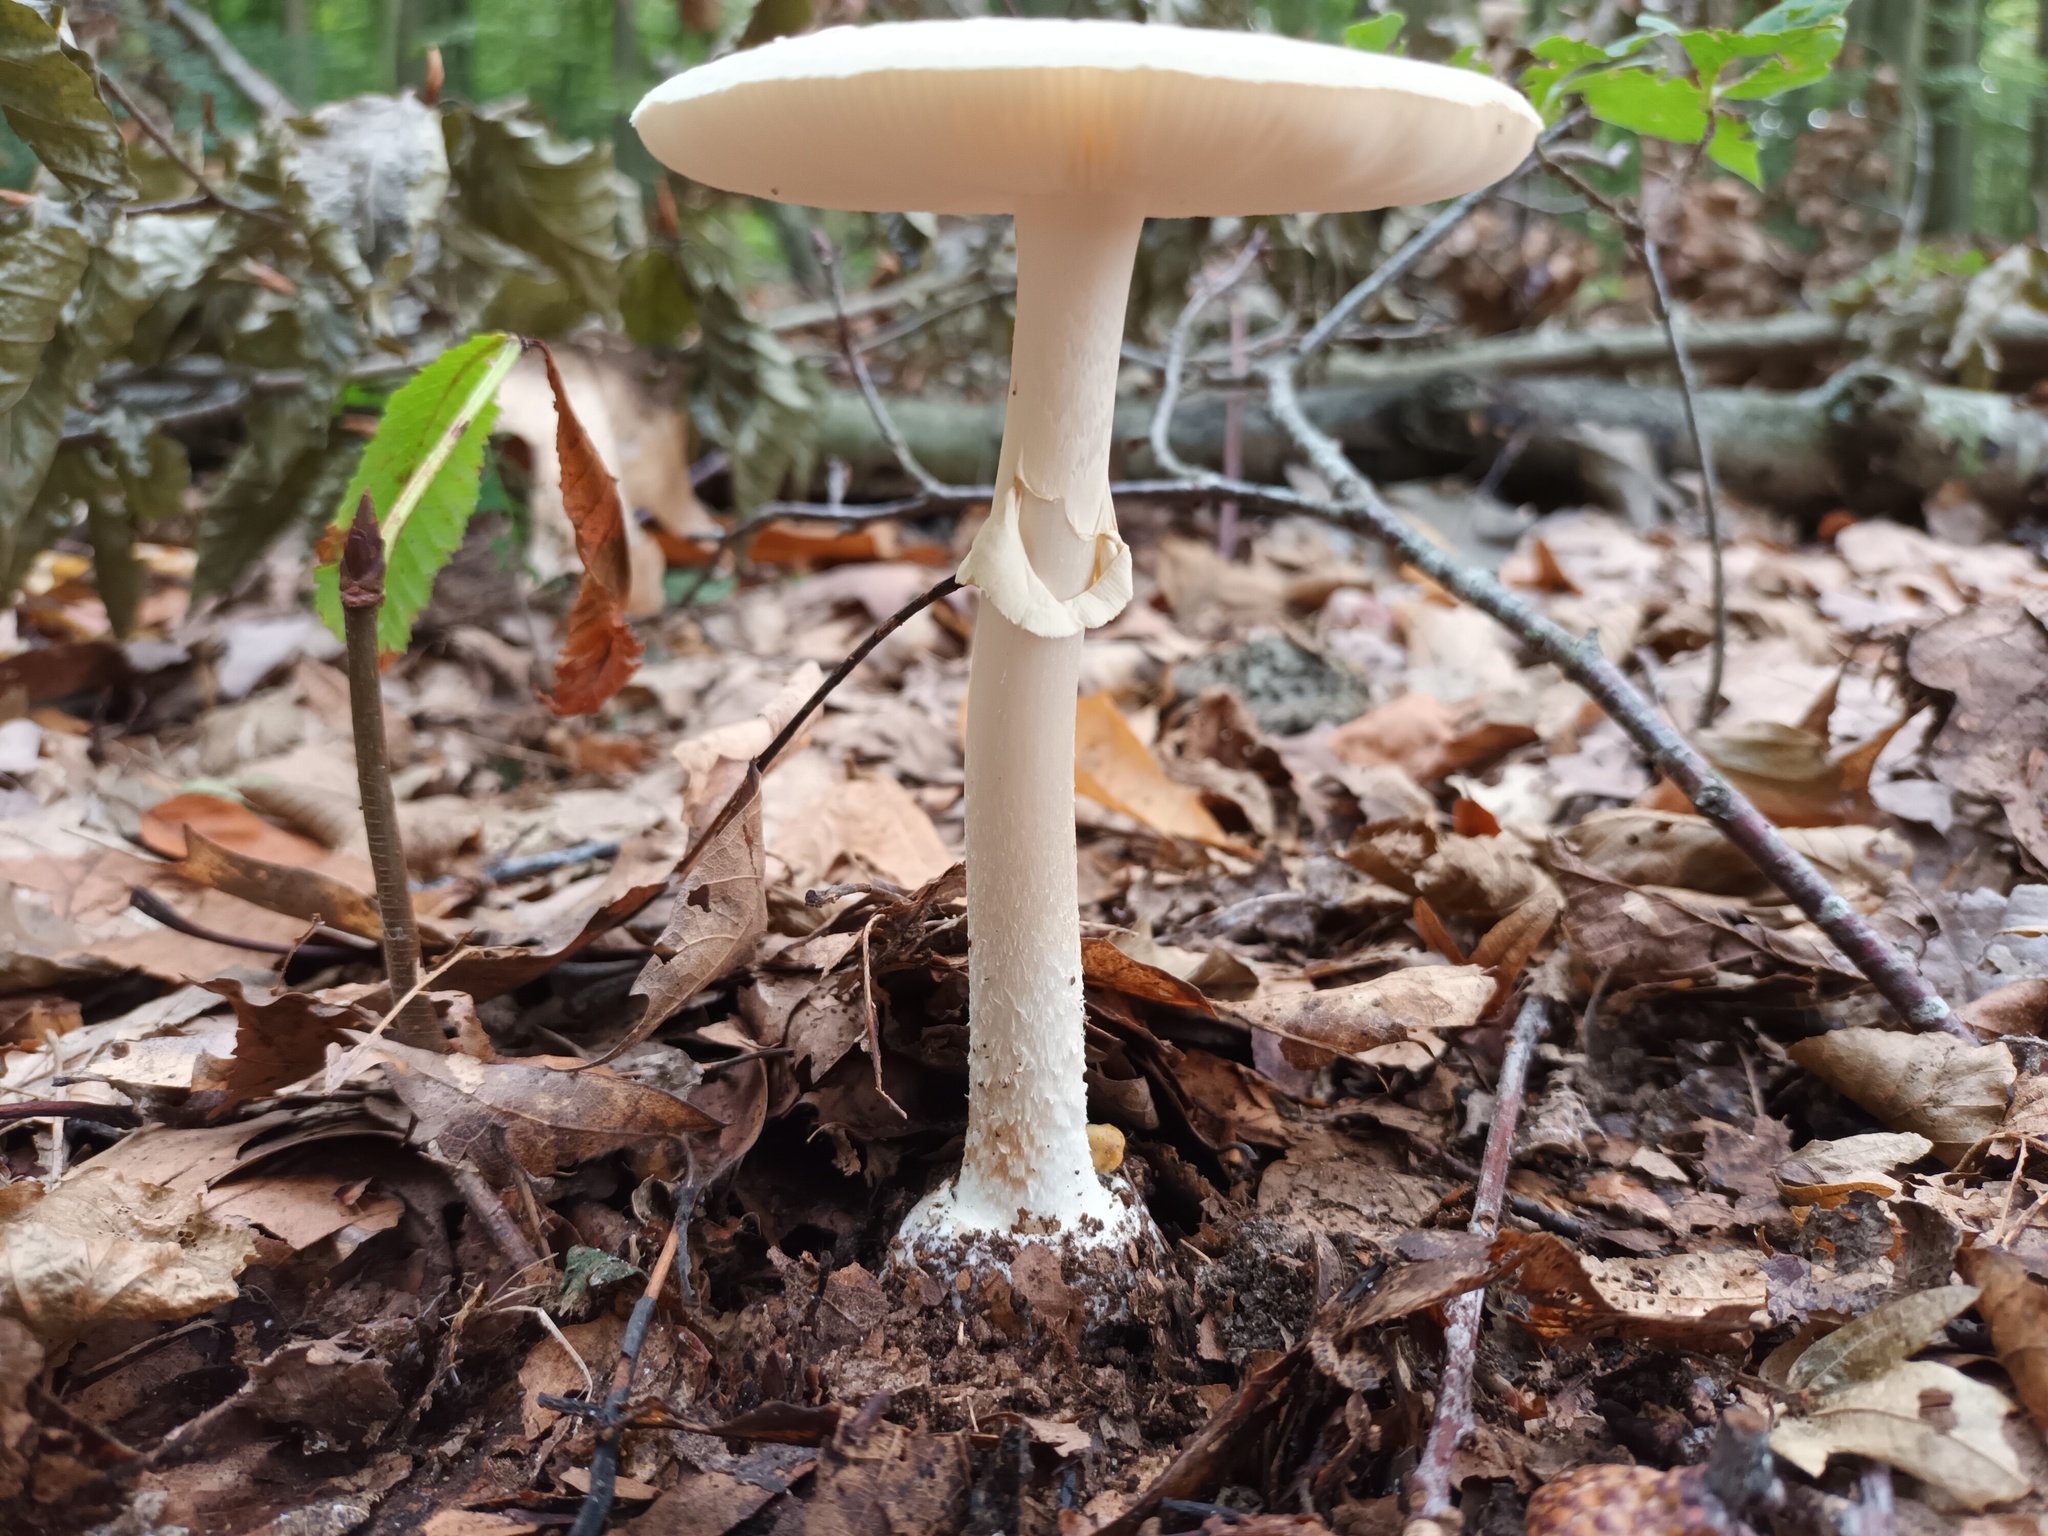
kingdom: Fungi
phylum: Basidiomycota
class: Agaricomycetes
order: Agaricales
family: Amanitaceae
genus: Amanita
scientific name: Amanita citrina
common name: False death-cap
